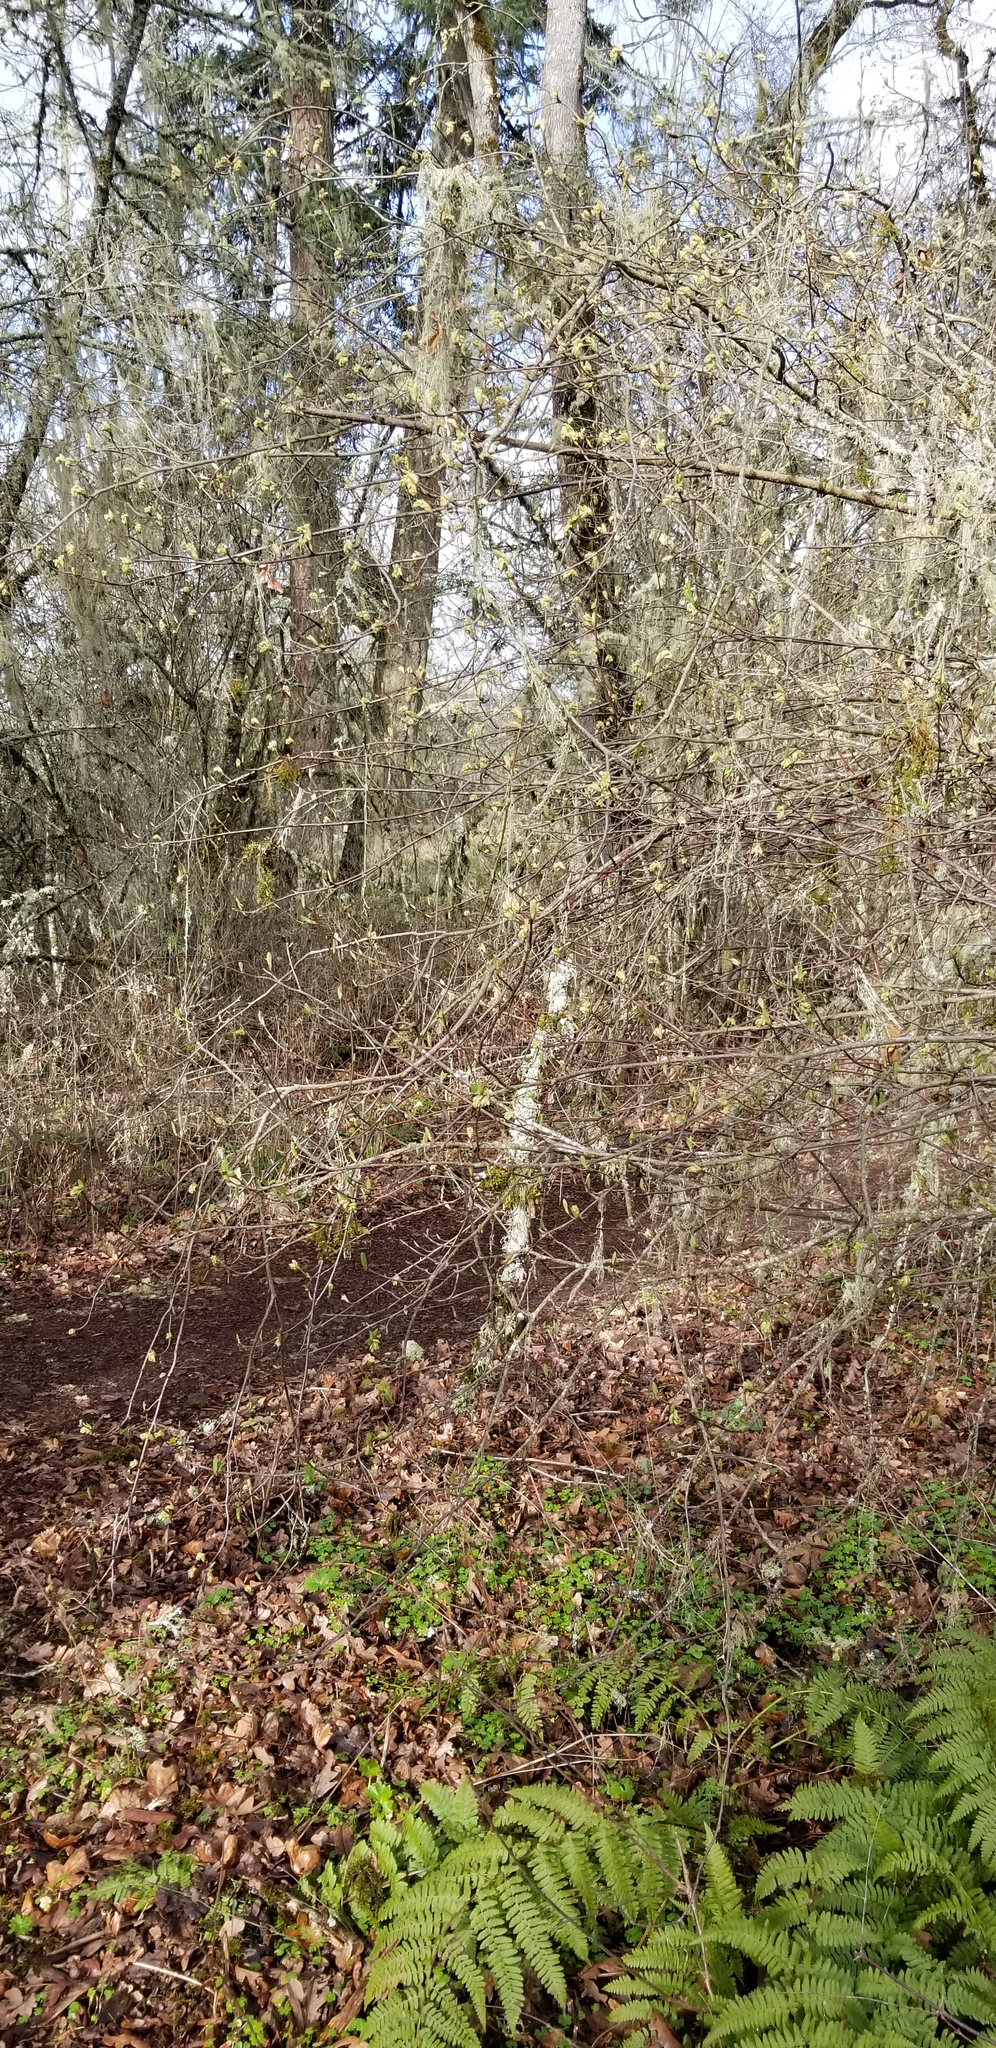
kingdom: Plantae
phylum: Tracheophyta
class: Magnoliopsida
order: Rosales
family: Rosaceae
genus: Oemleria
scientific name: Oemleria cerasiformis
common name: Osoberry
